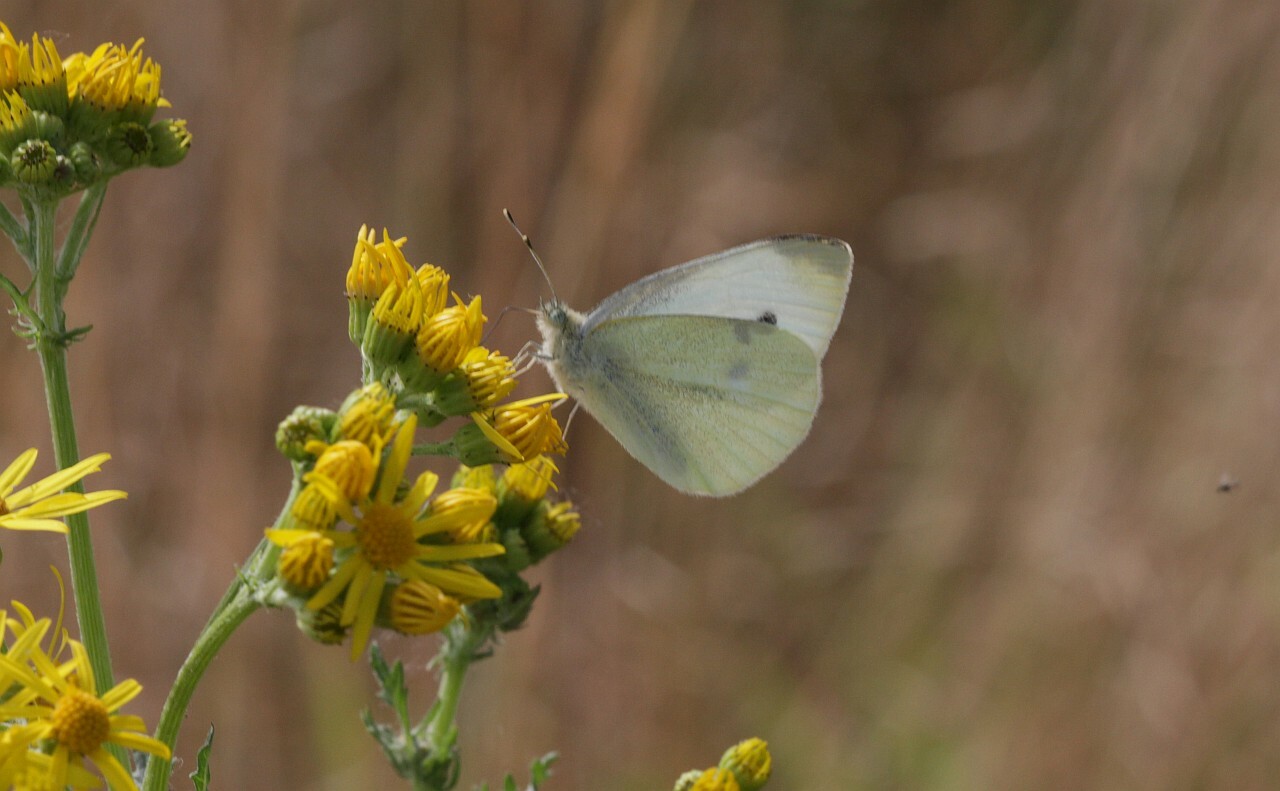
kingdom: Animalia
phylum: Arthropoda
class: Insecta
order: Lepidoptera
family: Pieridae
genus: Pieris
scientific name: Pieris rapae
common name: Small white
